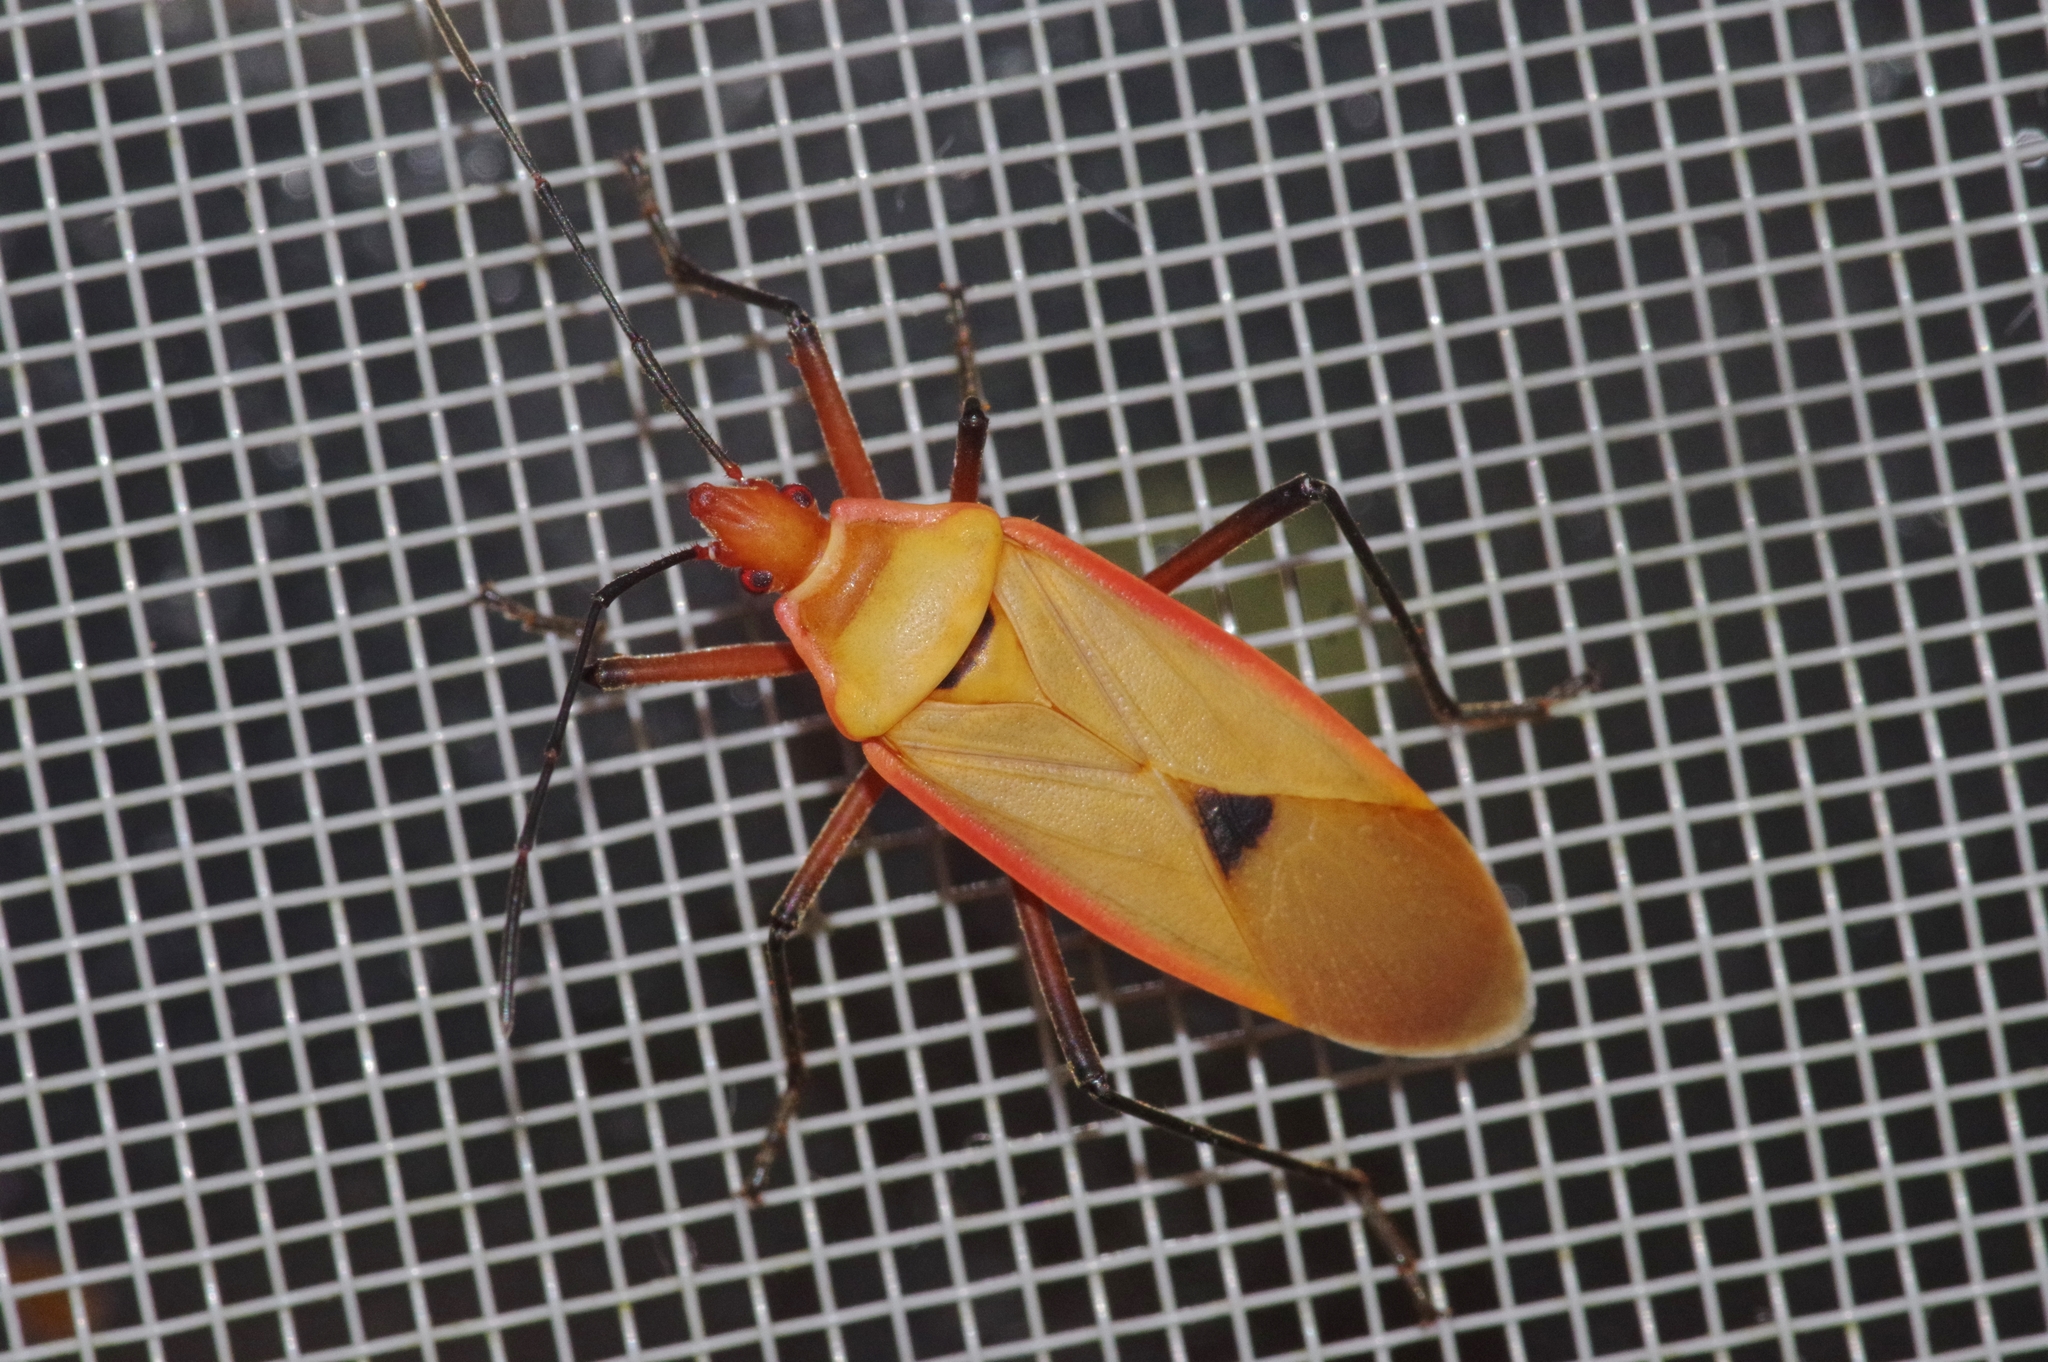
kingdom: Animalia
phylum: Arthropoda
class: Insecta
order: Hemiptera
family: Pyrrhocoridae
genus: Dysdercus
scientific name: Dysdercus fuscomaculatus
